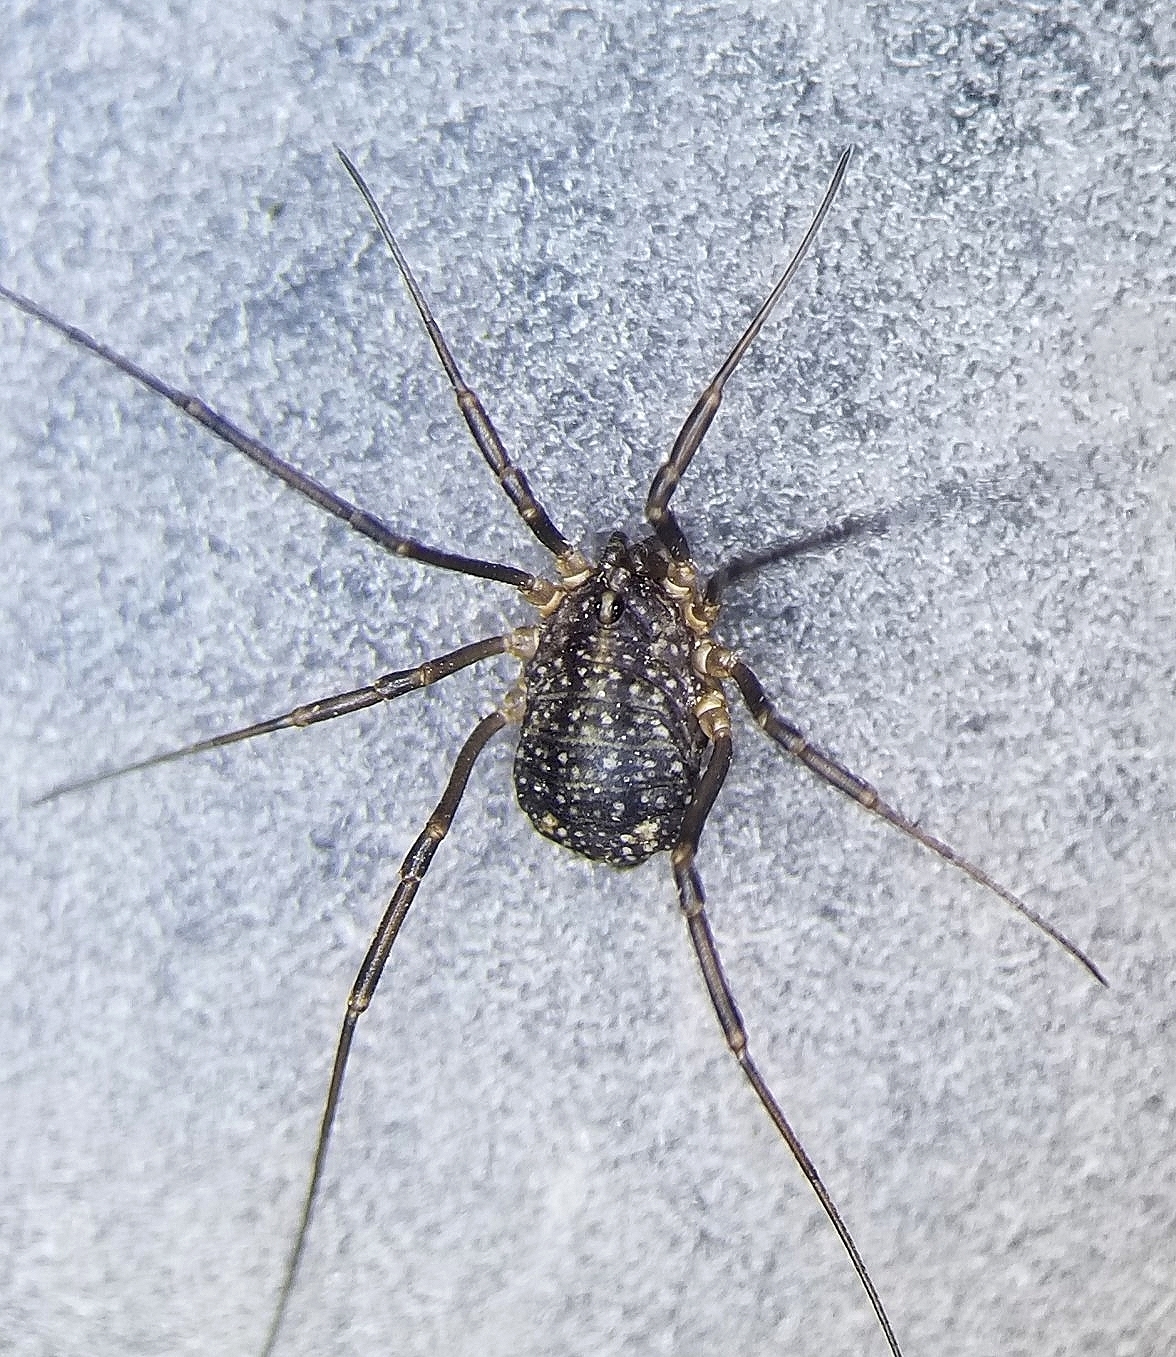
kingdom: Animalia
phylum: Arthropoda
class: Arachnida
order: Opiliones
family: Sclerosomatidae
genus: Togwoteeus
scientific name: Togwoteeus biceps
